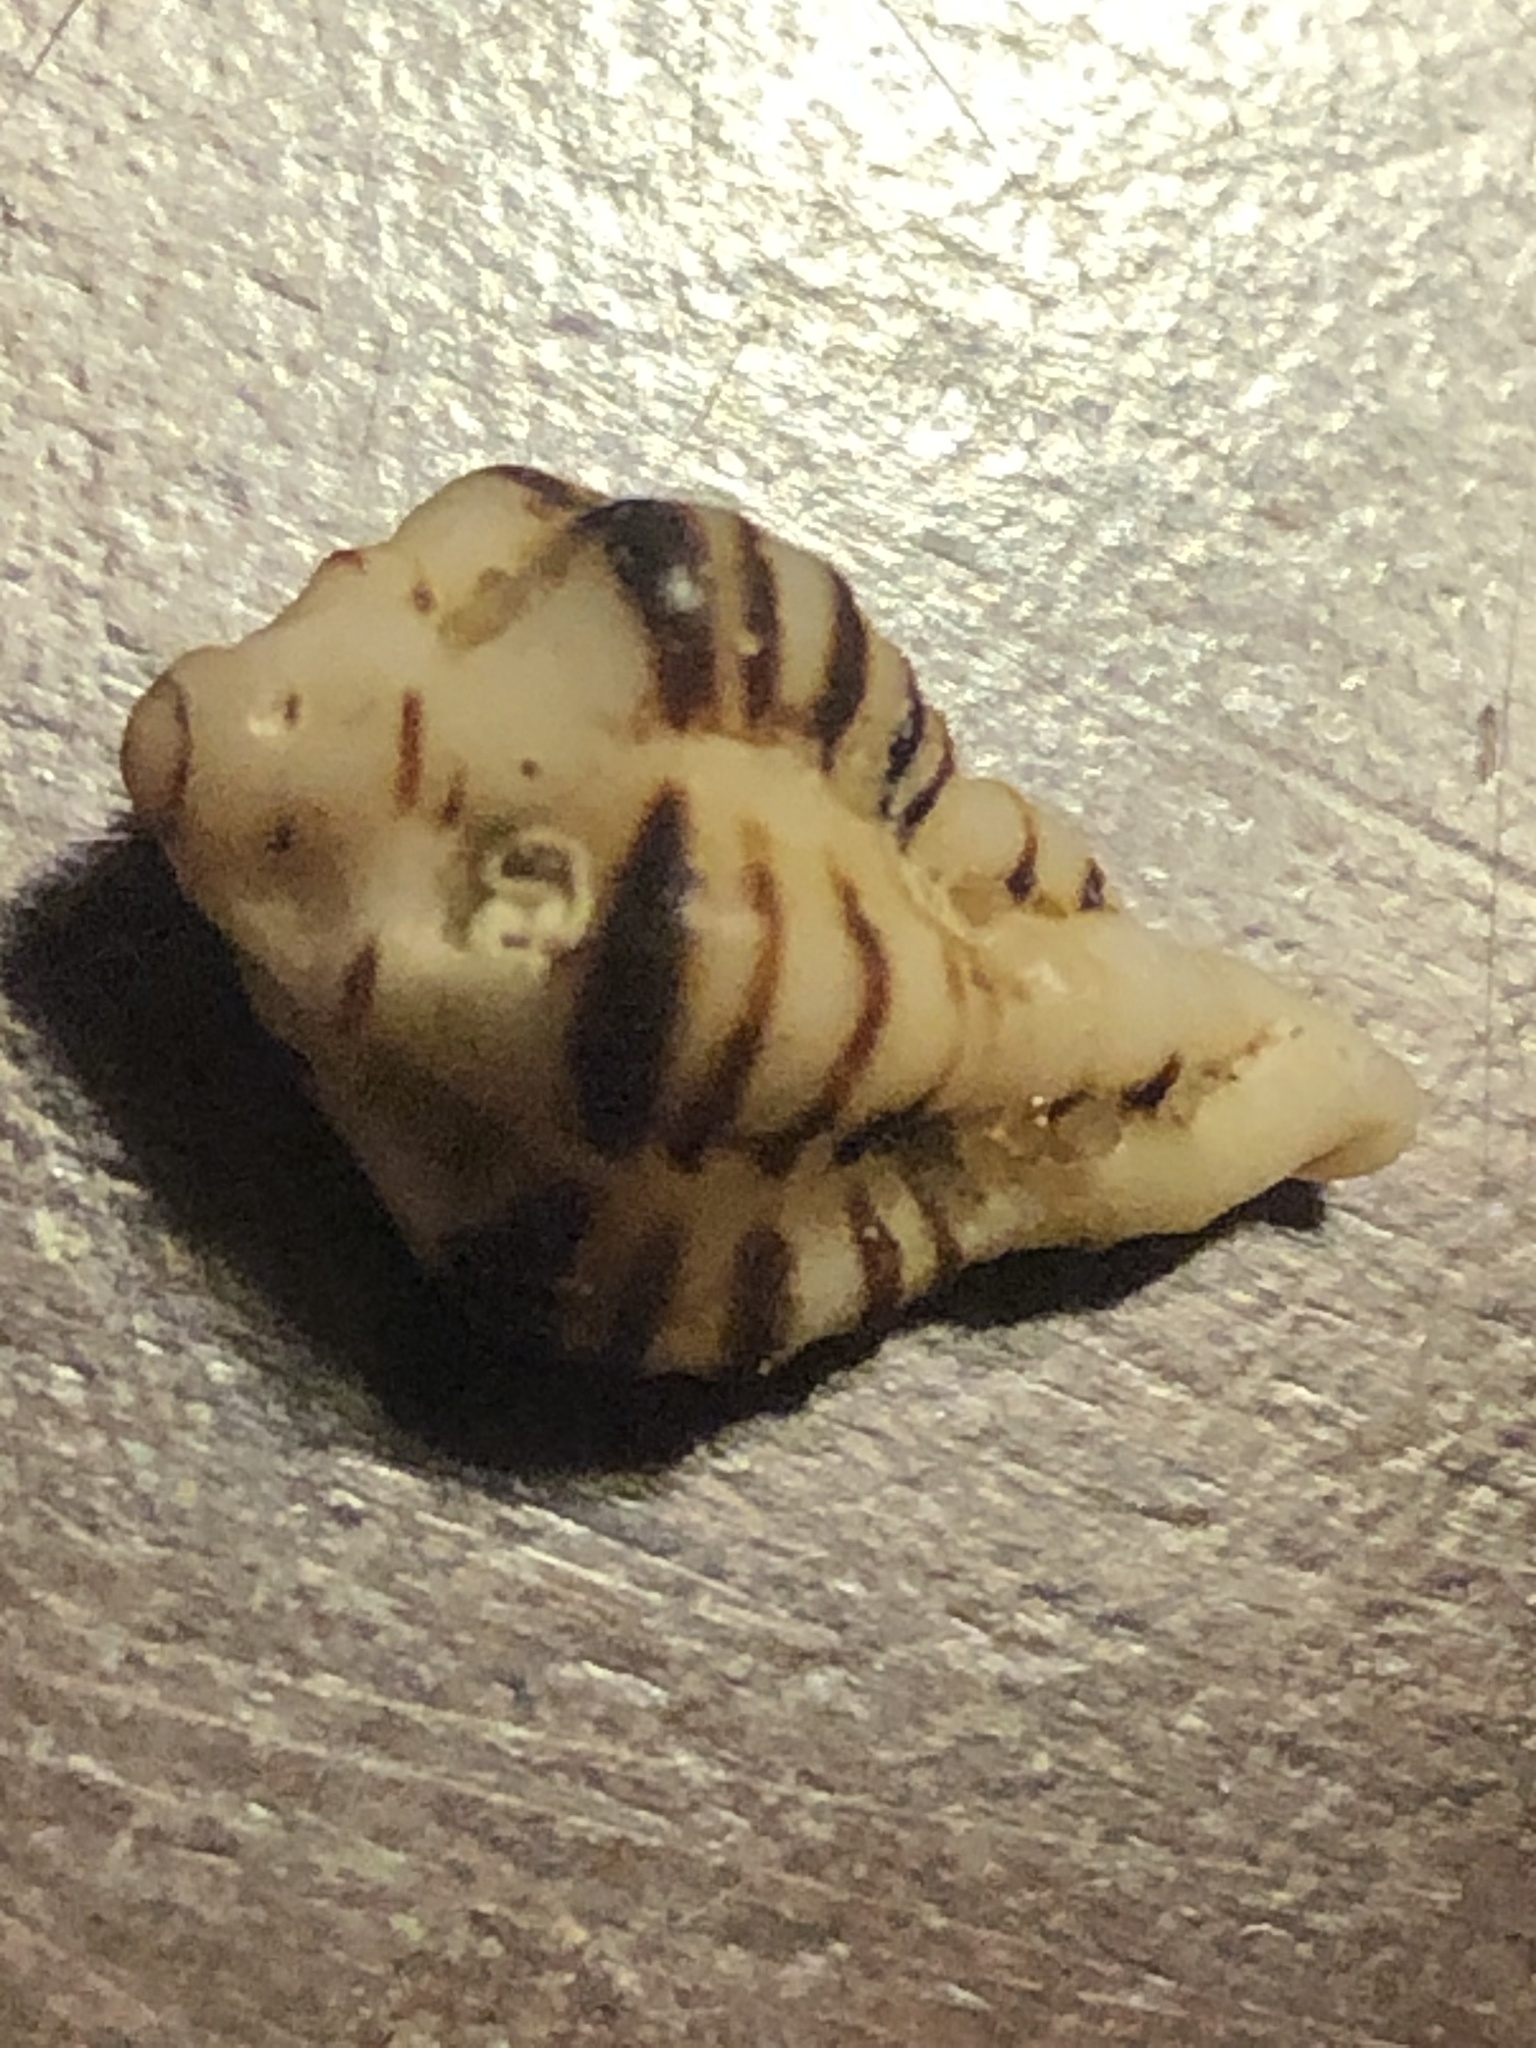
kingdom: Animalia
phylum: Mollusca
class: Gastropoda
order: Neogastropoda
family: Muricidae
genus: Maxwellia
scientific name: Maxwellia gemma
